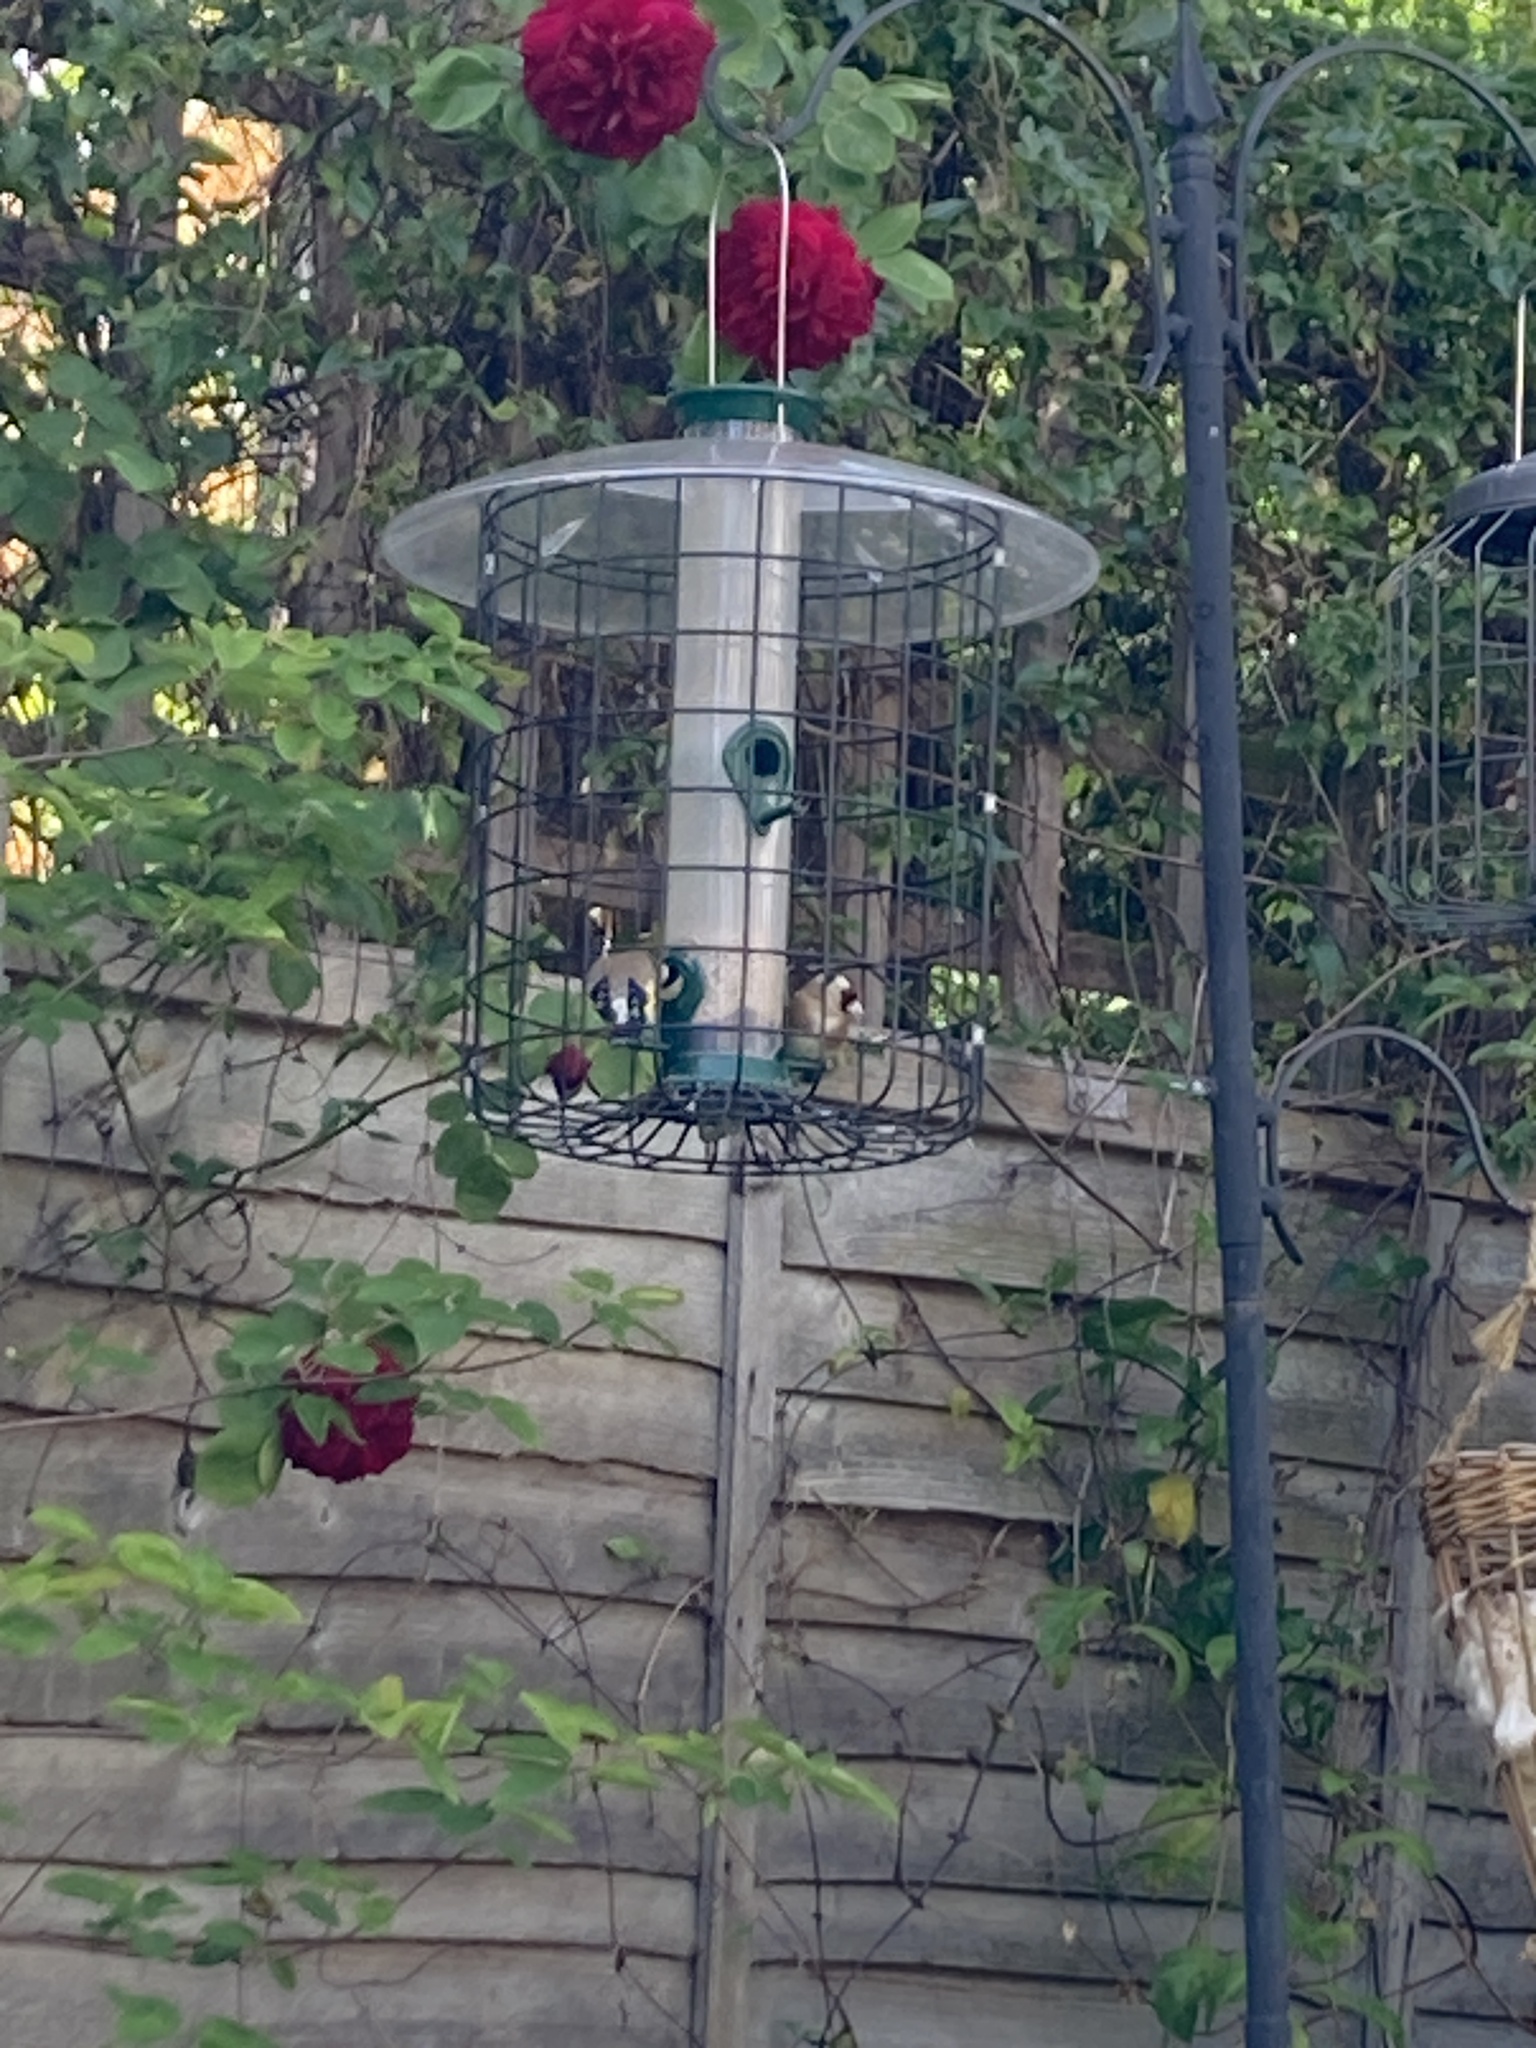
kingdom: Animalia
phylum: Chordata
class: Aves
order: Passeriformes
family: Fringillidae
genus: Carduelis
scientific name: Carduelis carduelis
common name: European goldfinch
